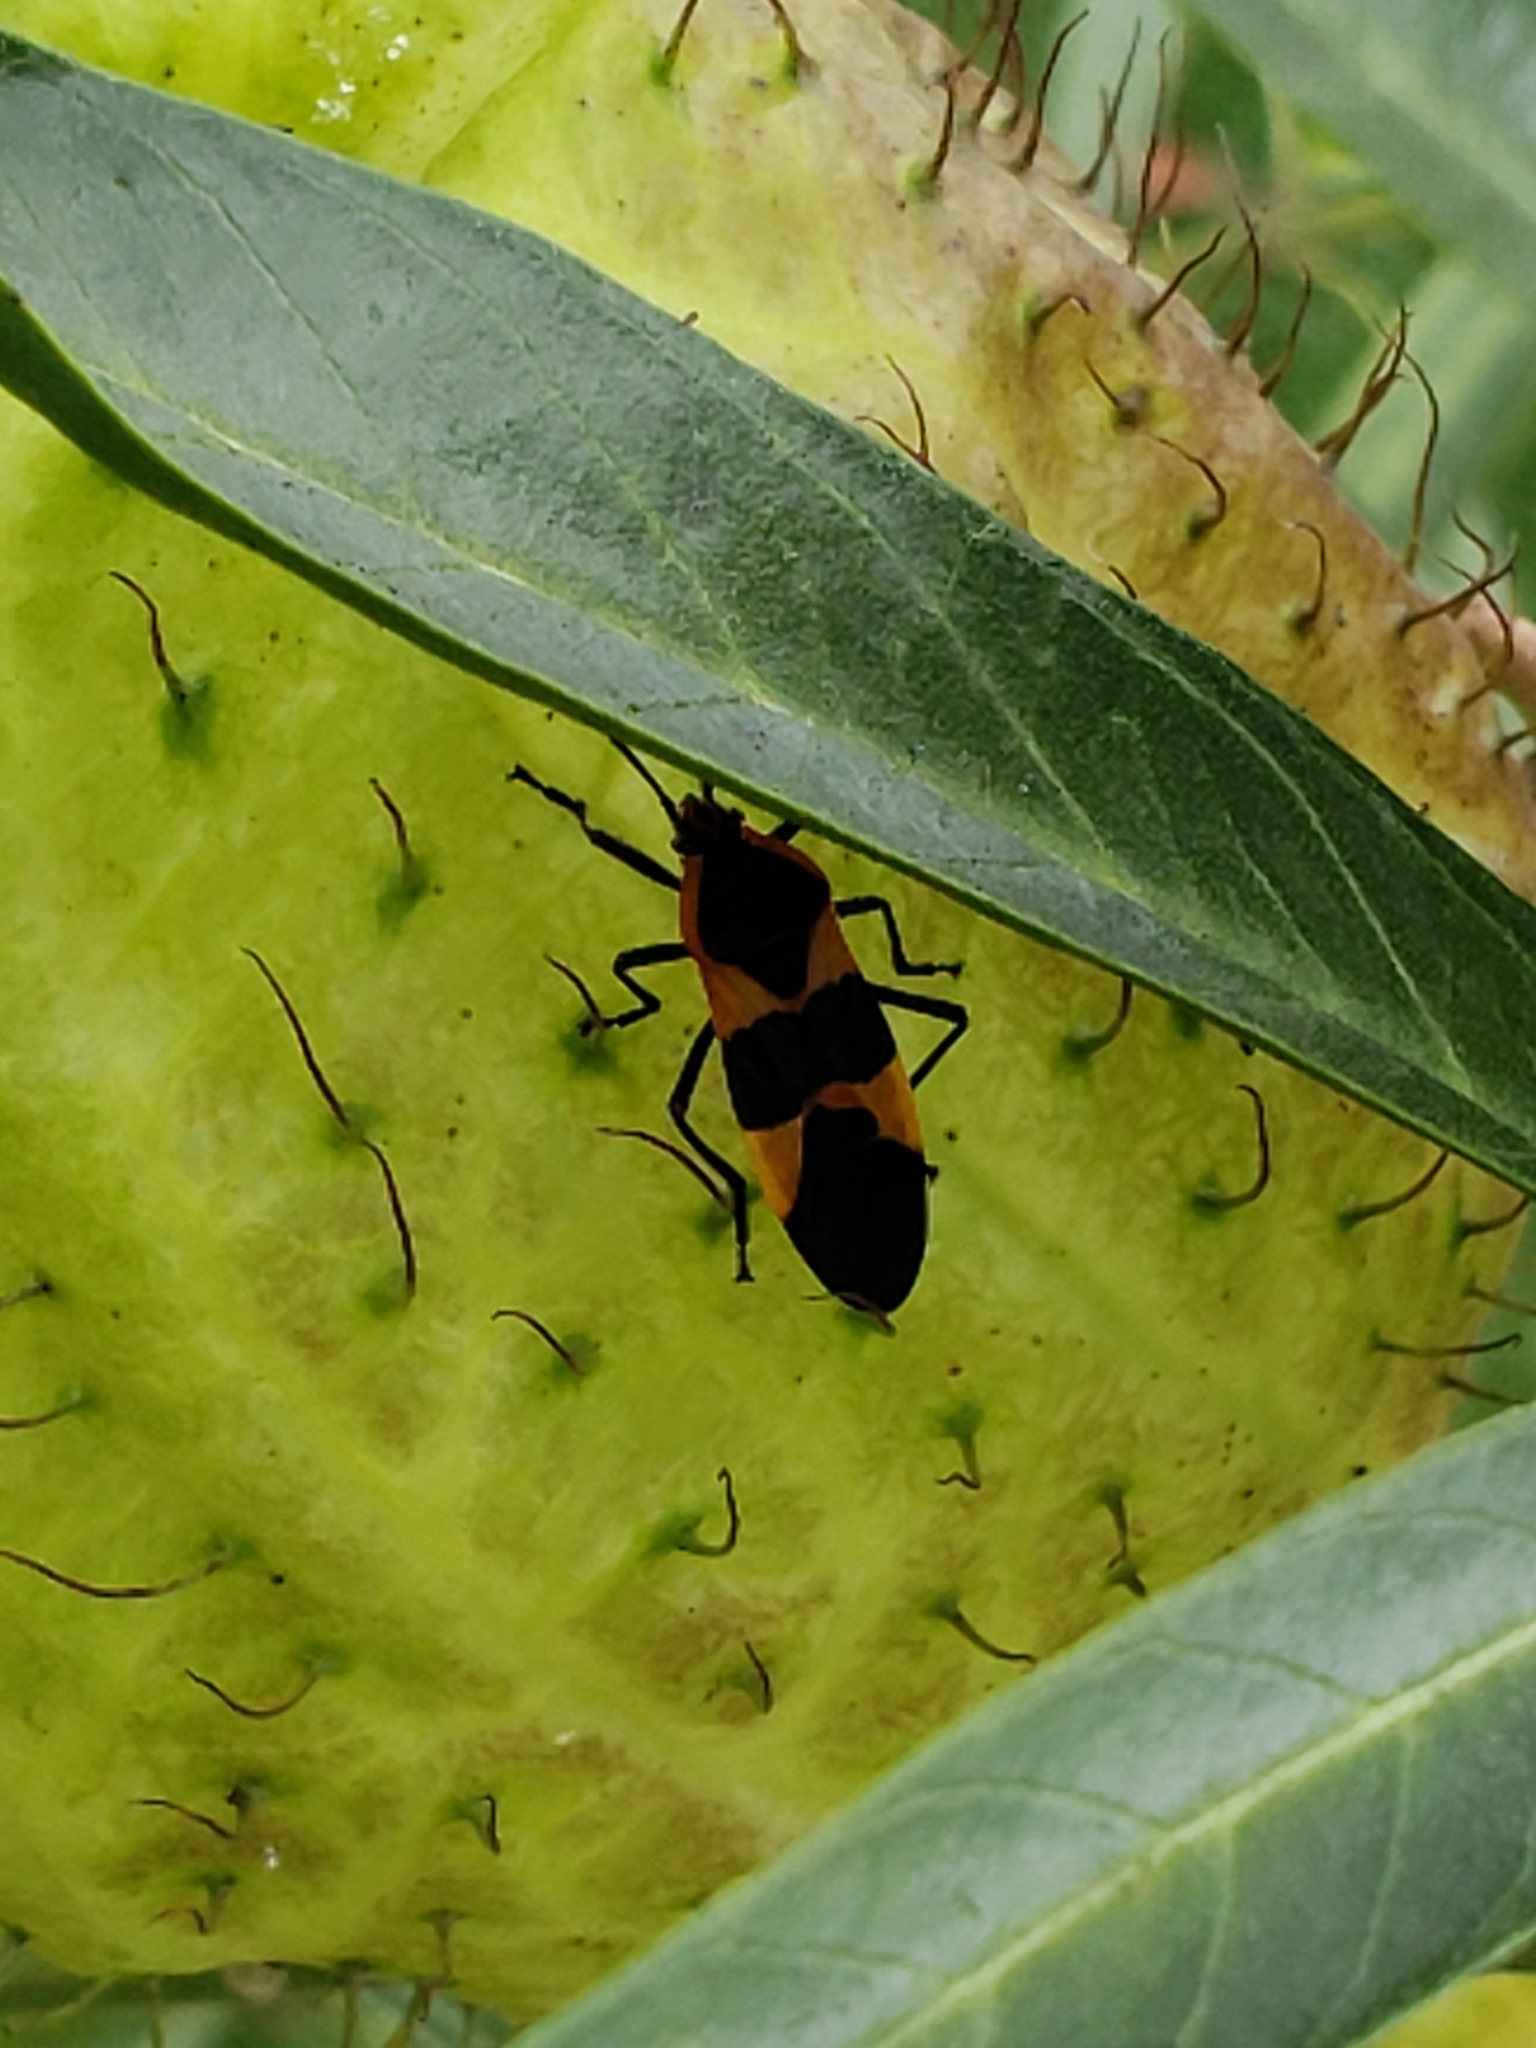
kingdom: Animalia
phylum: Arthropoda
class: Insecta
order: Hemiptera
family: Lygaeidae
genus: Oncopeltus
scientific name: Oncopeltus fasciatus
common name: Large milkweed bug
